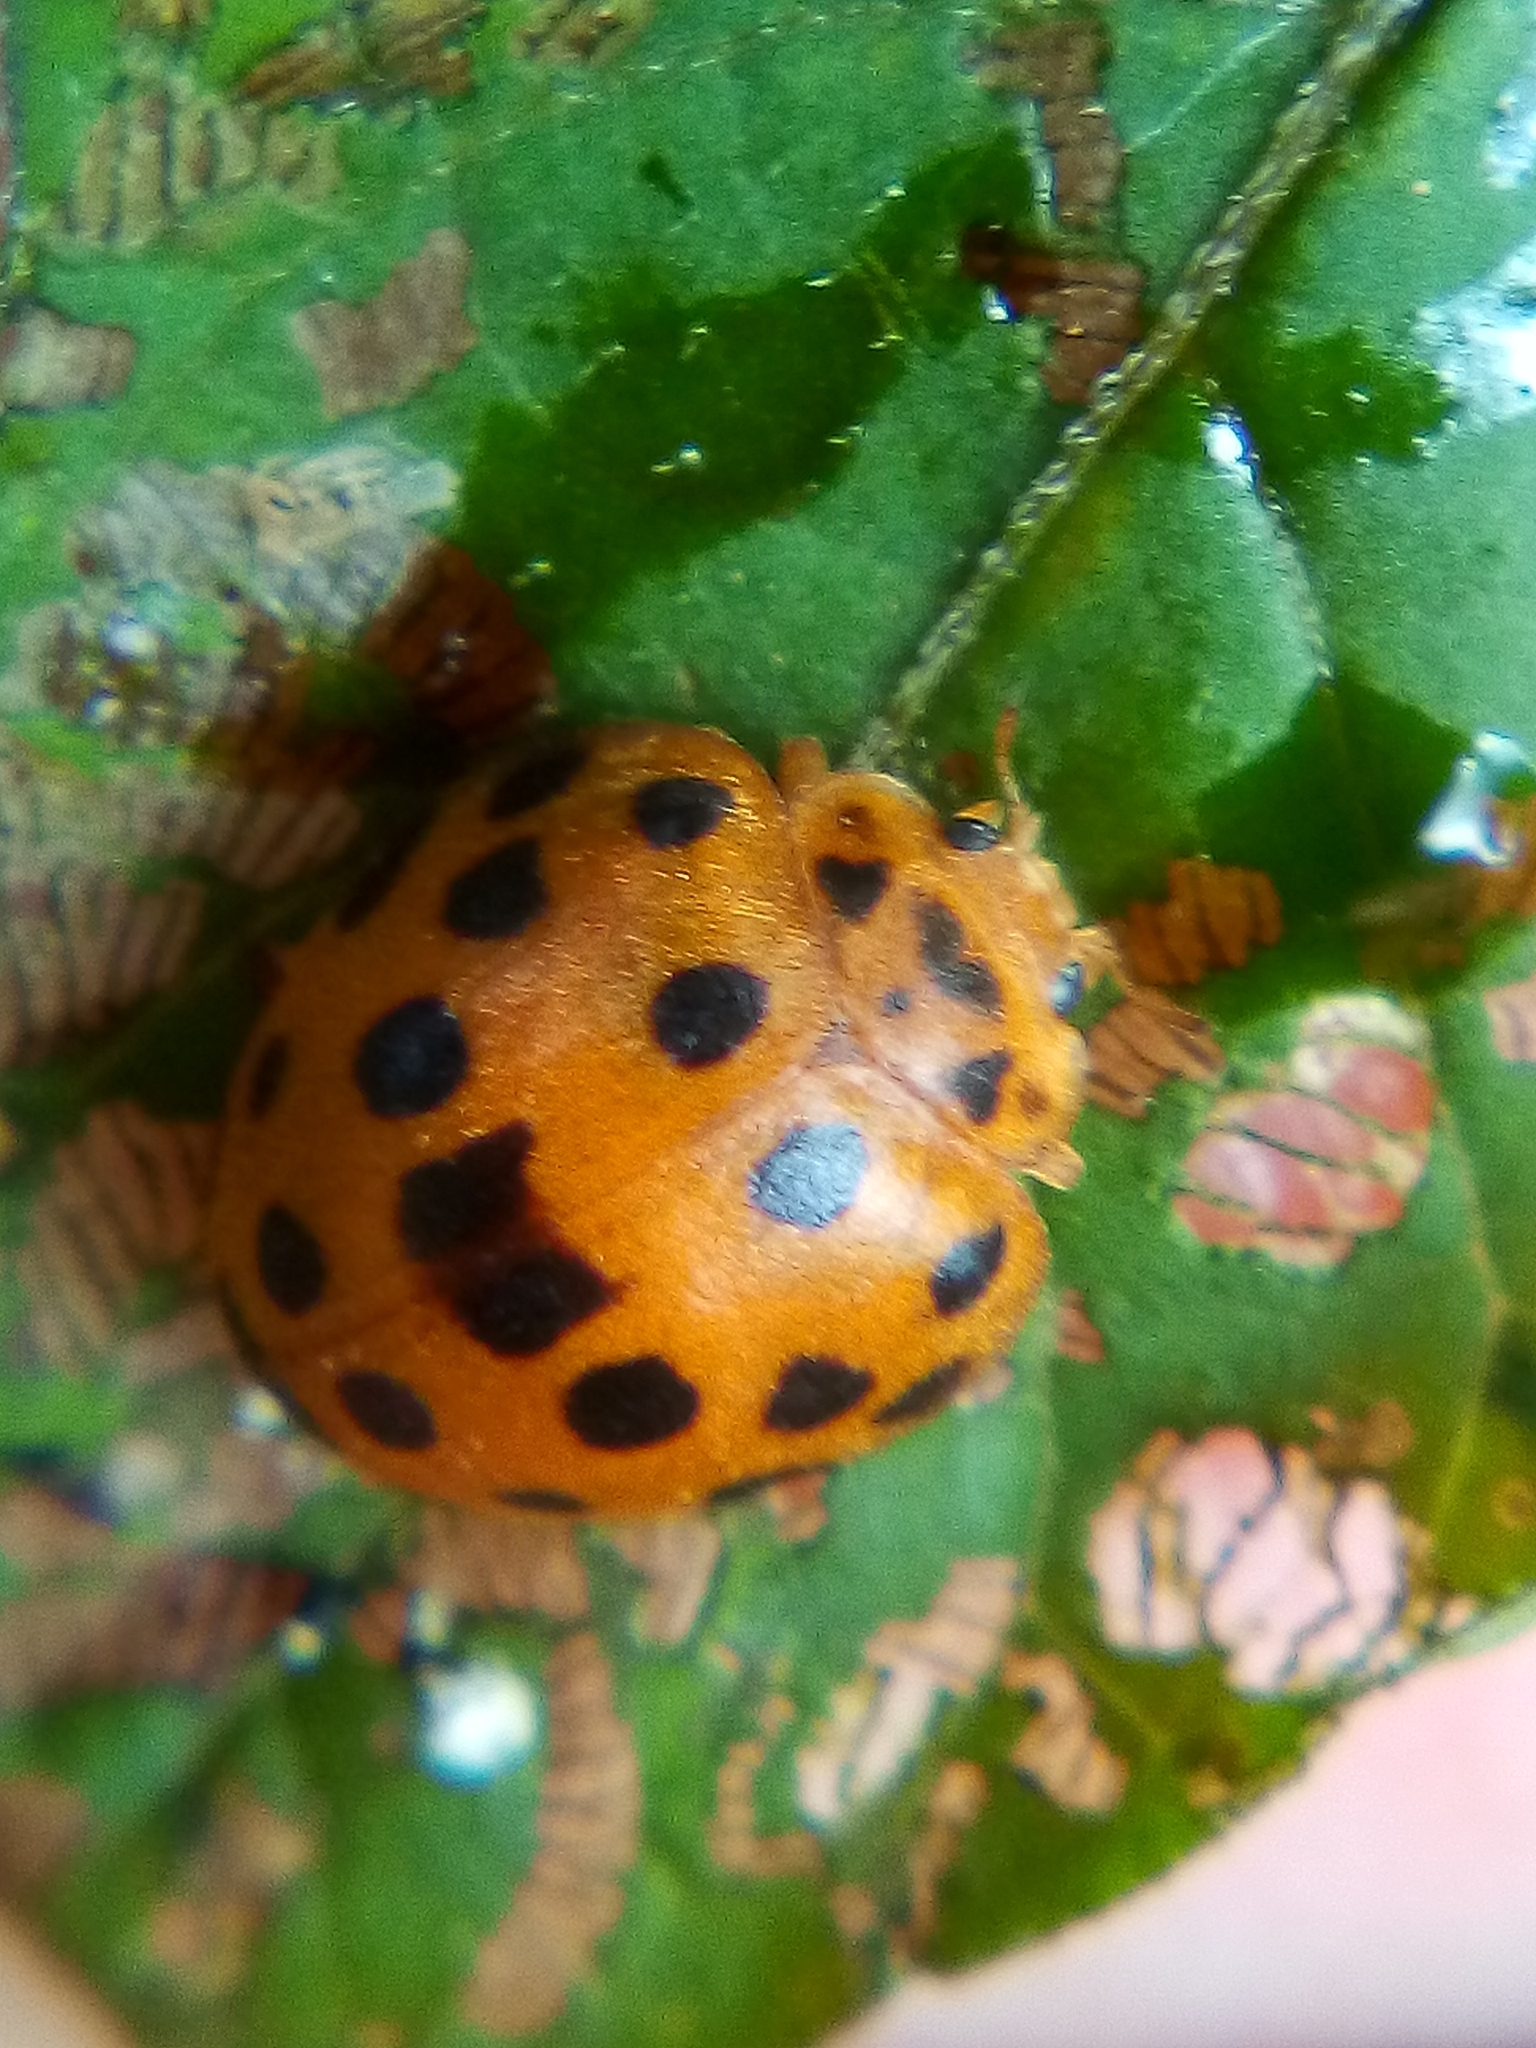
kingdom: Animalia
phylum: Arthropoda
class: Insecta
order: Coleoptera
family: Coccinellidae
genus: Henosepilachna
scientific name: Henosepilachna vigintioctopunctata
